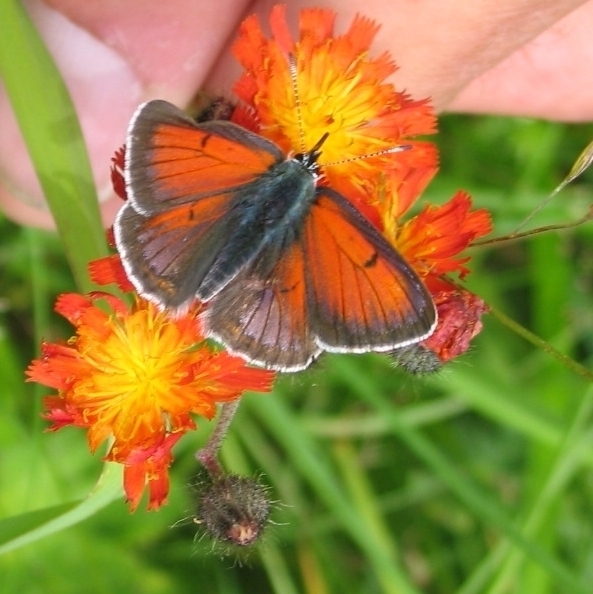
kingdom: Animalia
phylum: Arthropoda
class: Insecta
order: Lepidoptera
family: Lycaenidae
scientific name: Lycaenidae
